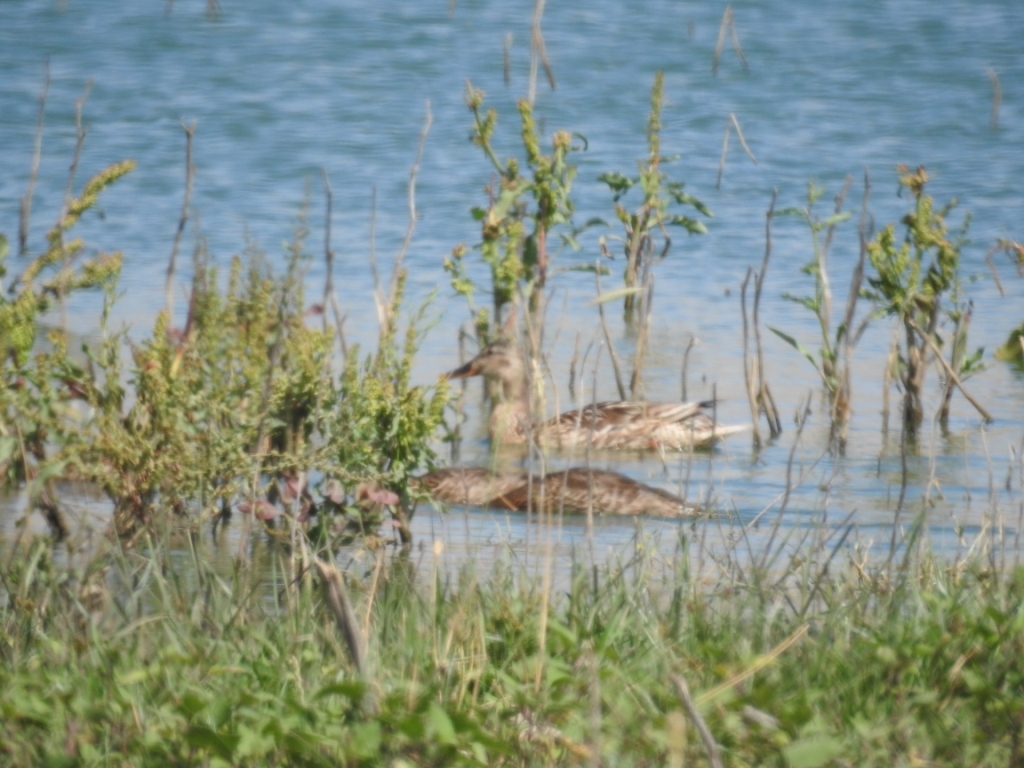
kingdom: Animalia
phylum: Chordata
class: Aves
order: Anseriformes
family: Anatidae
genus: Anas
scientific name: Anas platyrhynchos
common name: Mallard
